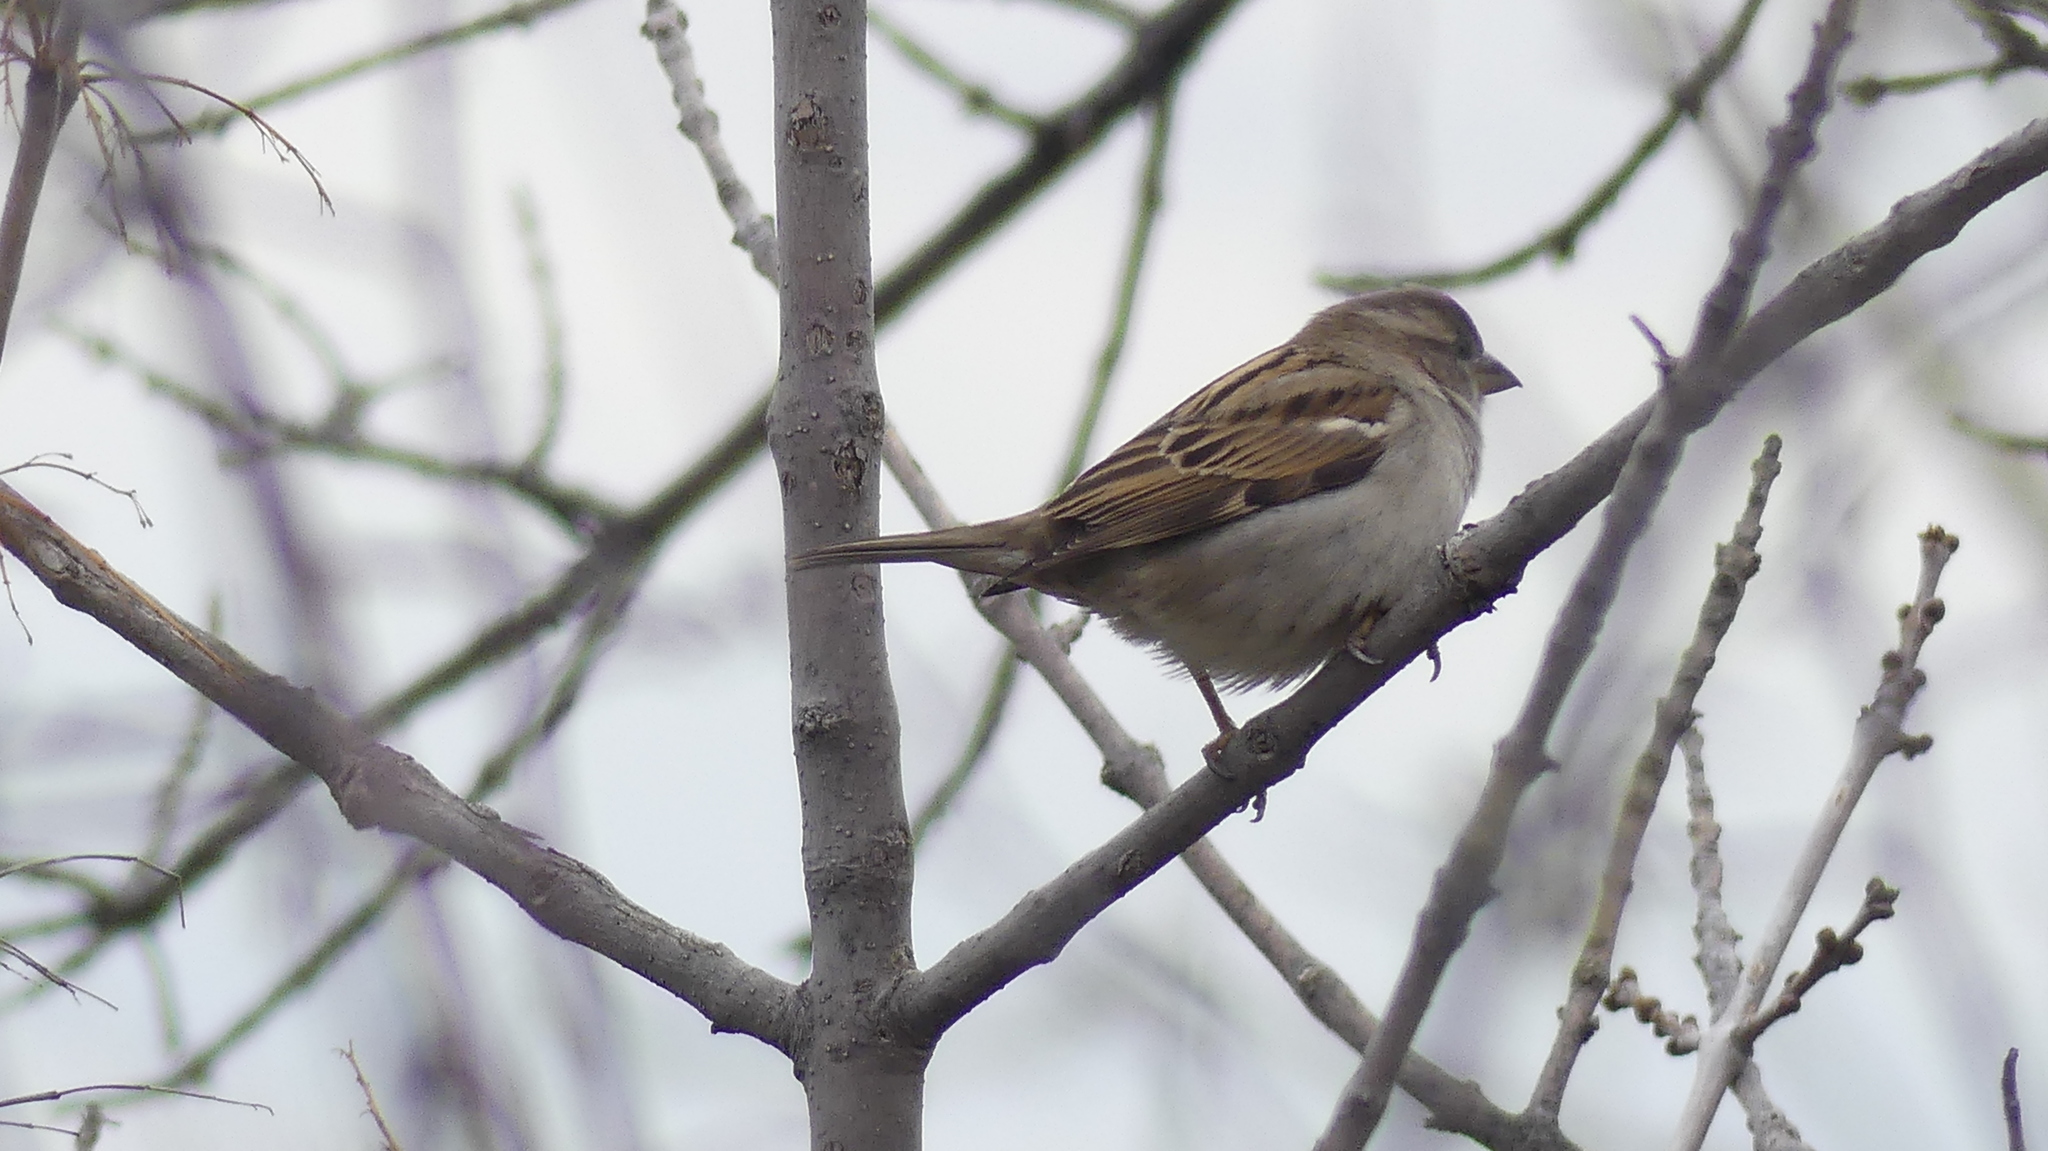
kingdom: Animalia
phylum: Chordata
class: Aves
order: Passeriformes
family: Passeridae
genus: Passer
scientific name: Passer domesticus
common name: House sparrow
